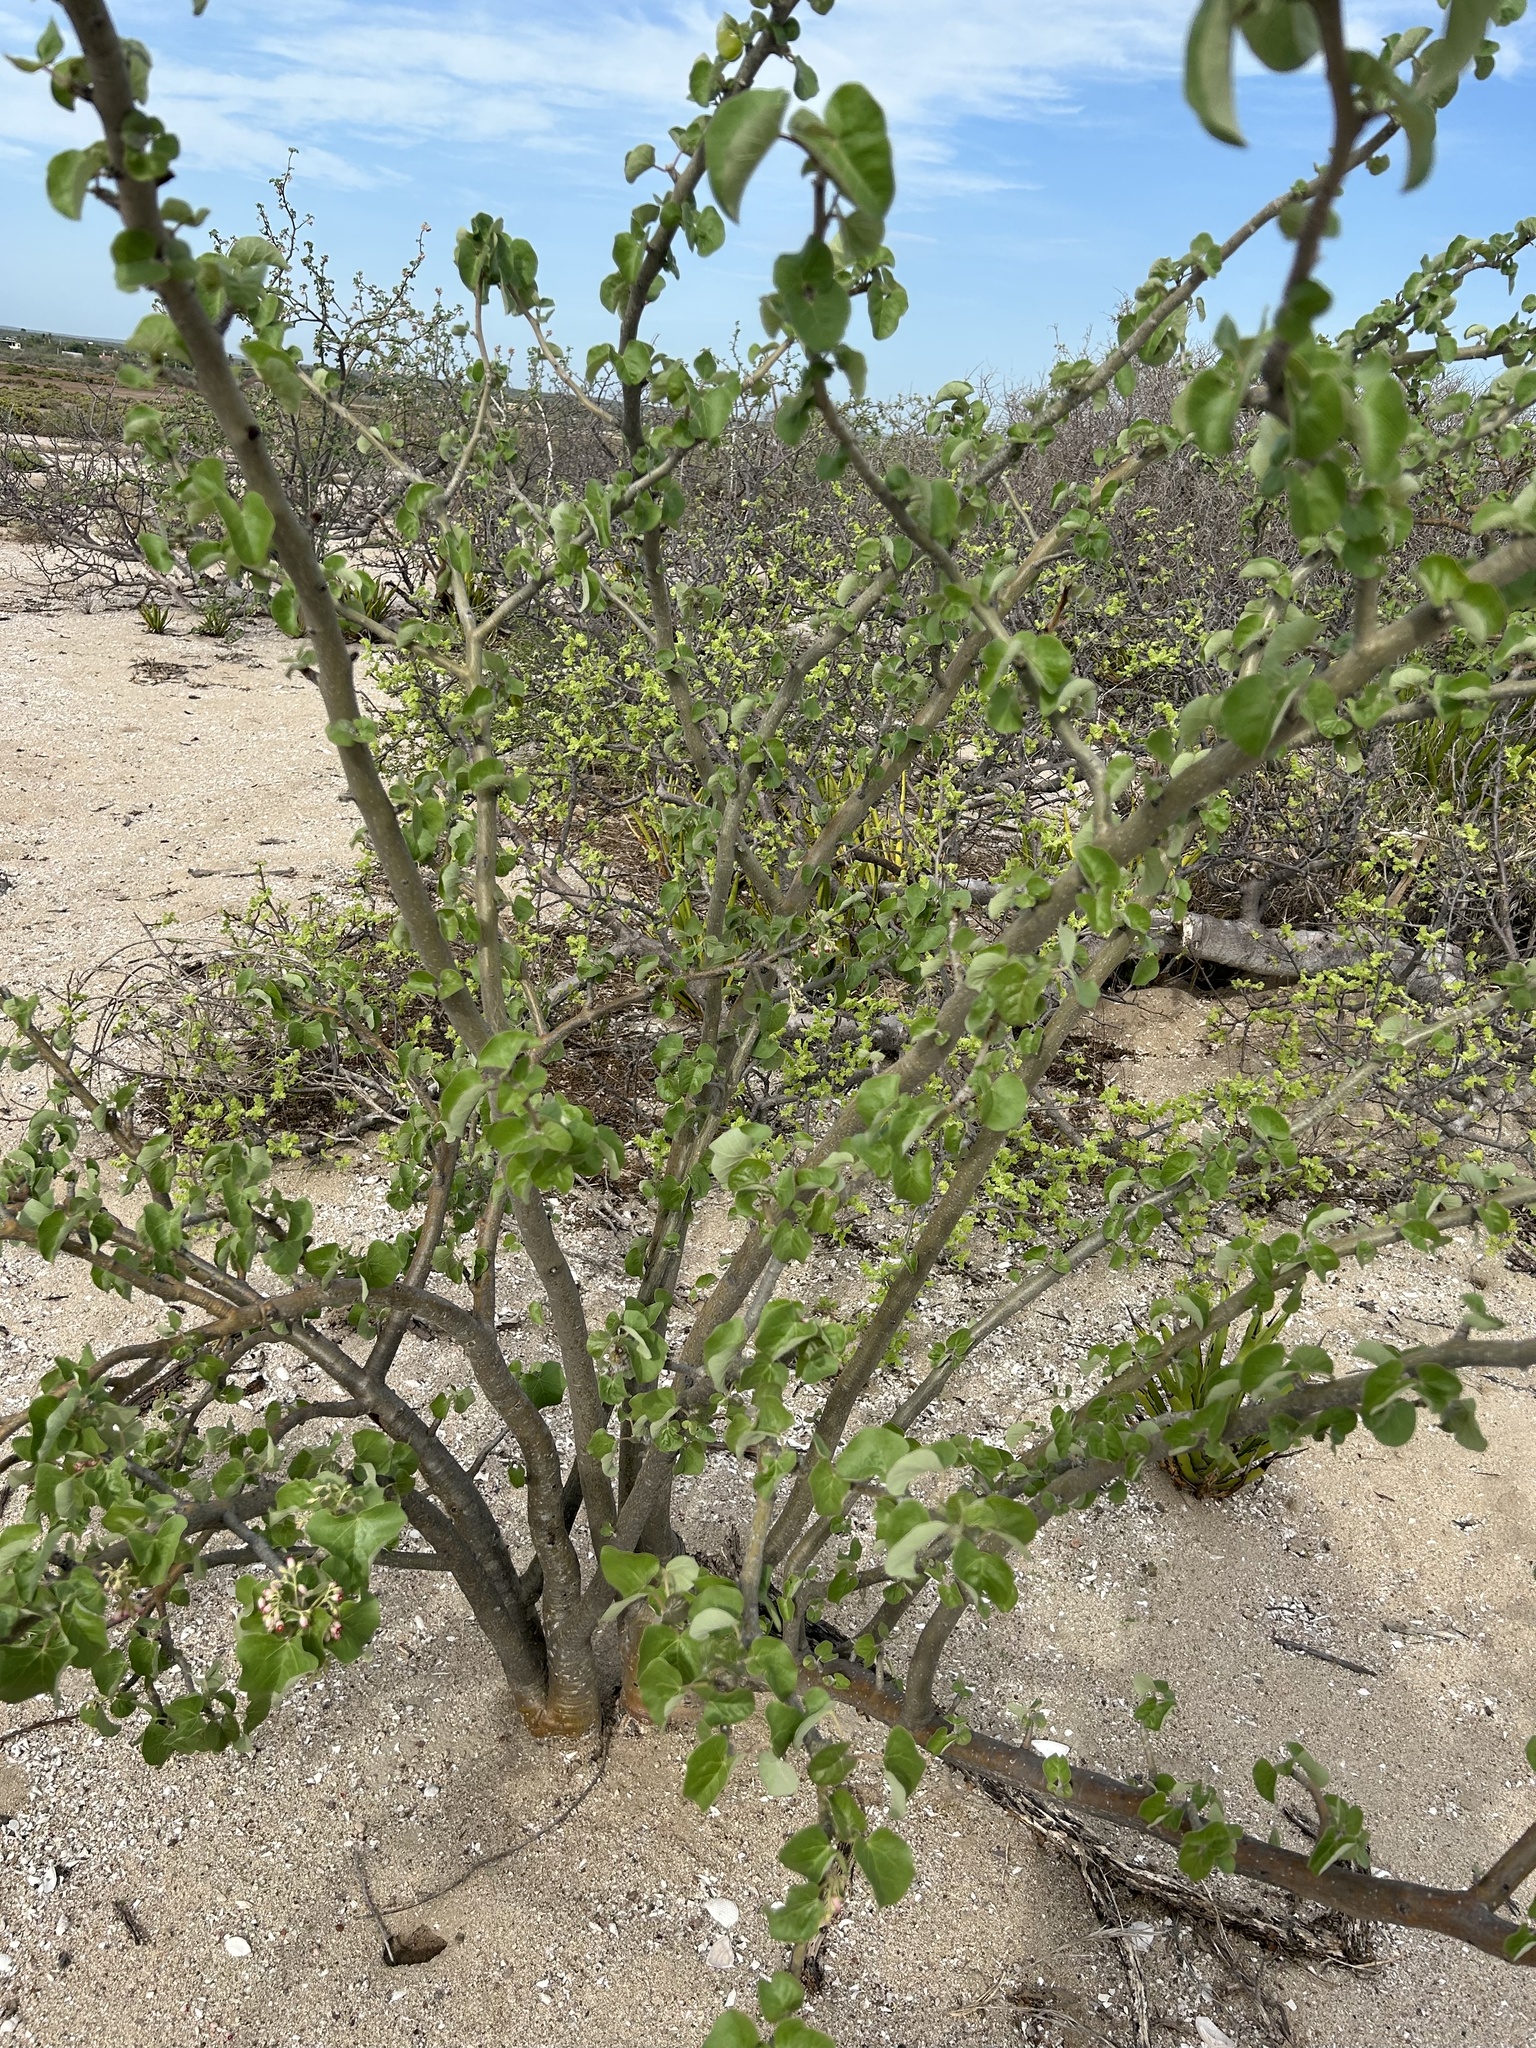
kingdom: Plantae
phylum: Tracheophyta
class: Magnoliopsida
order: Malpighiales
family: Euphorbiaceae
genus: Jatropha
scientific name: Jatropha cinerea
